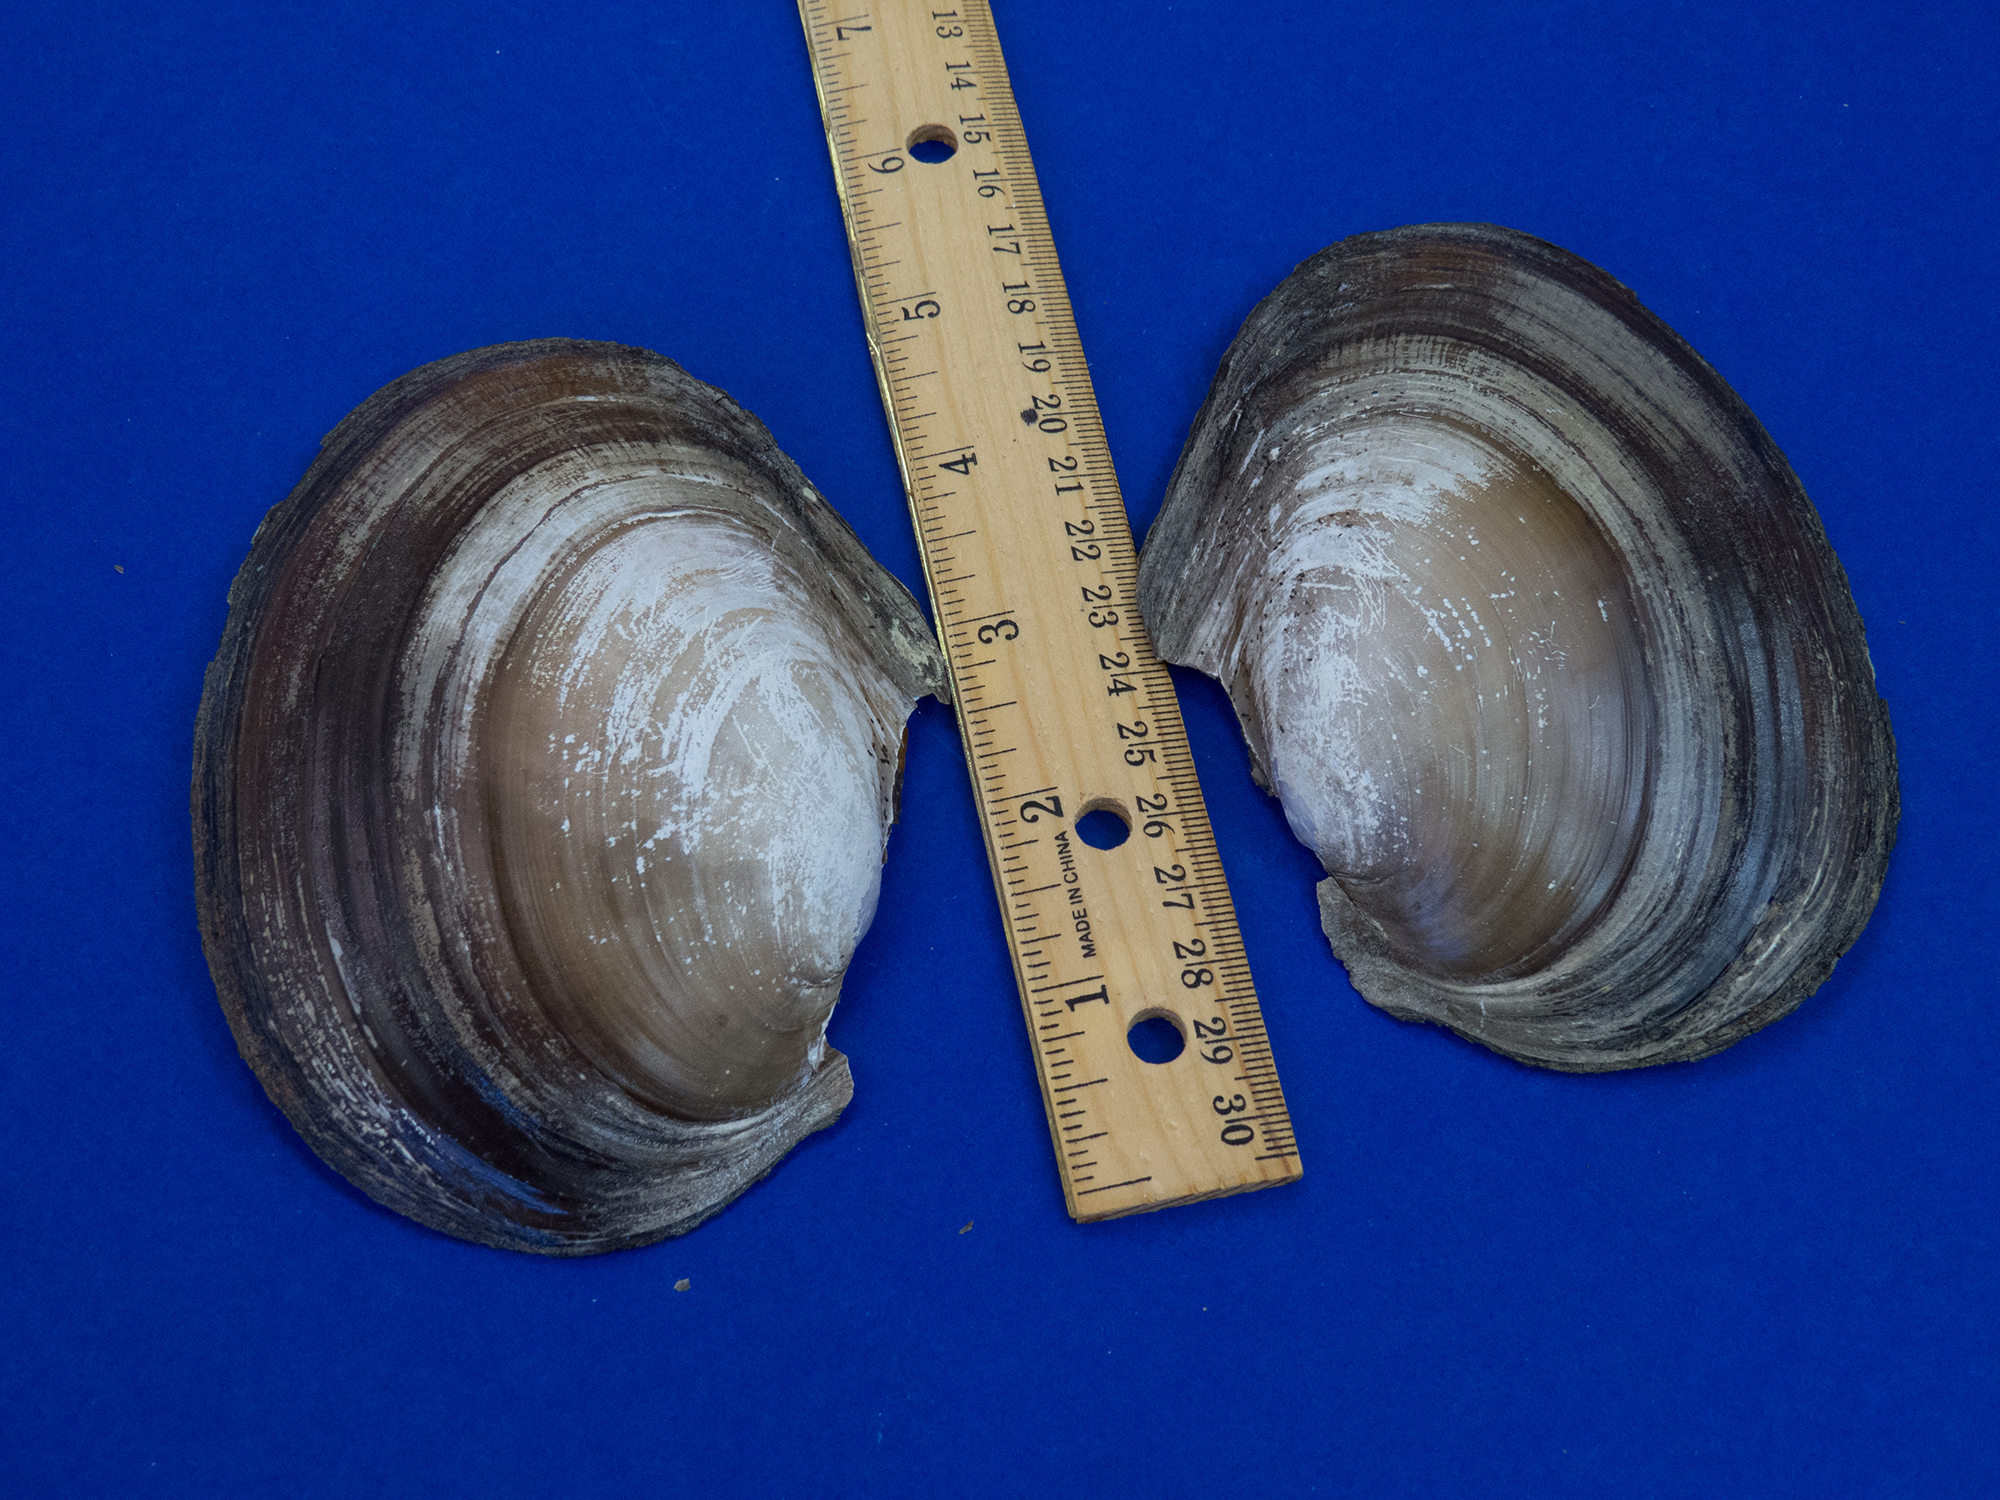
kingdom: Animalia
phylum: Mollusca
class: Bivalvia
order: Unionida
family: Unionidae
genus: Potamilus
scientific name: Potamilus ohiensis
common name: Pink papershell
